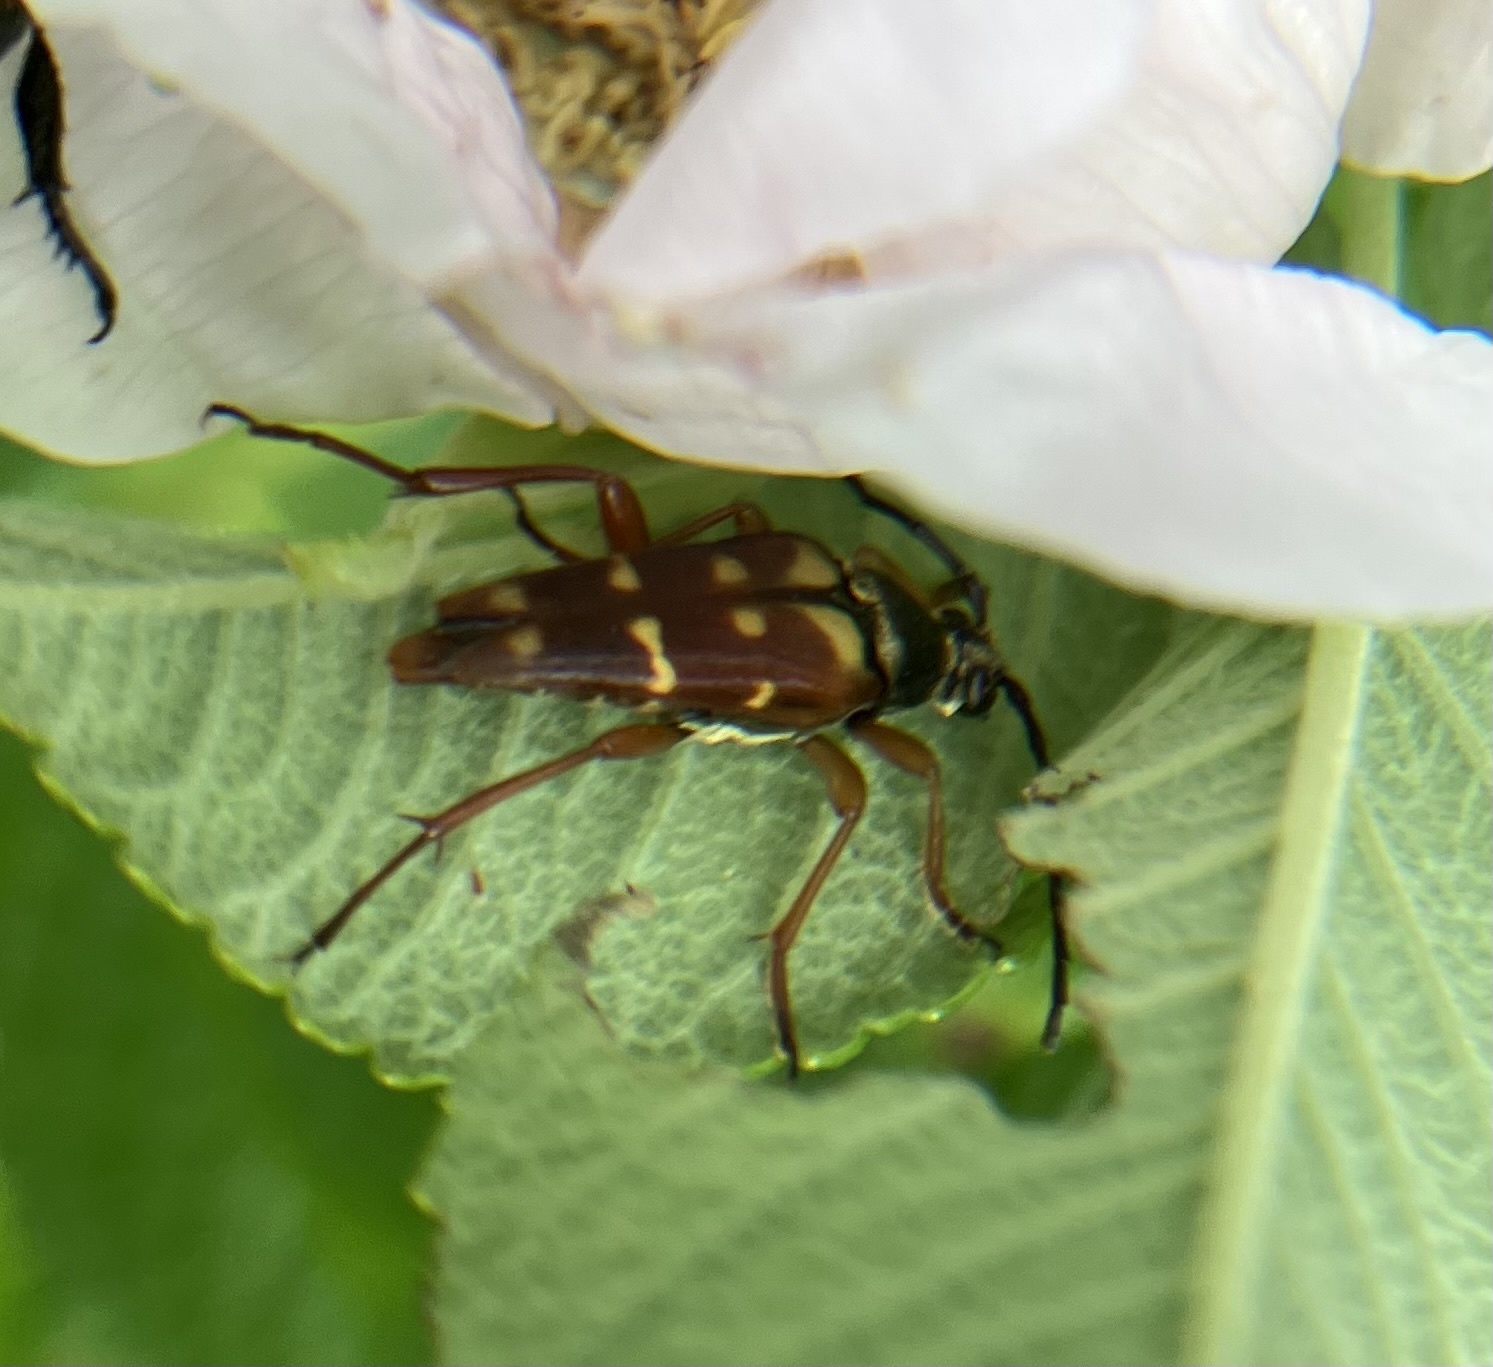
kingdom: Animalia
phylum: Arthropoda
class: Insecta
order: Coleoptera
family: Cerambycidae
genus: Typocerus
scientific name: Typocerus velutinus
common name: Banded longhorn beetle
